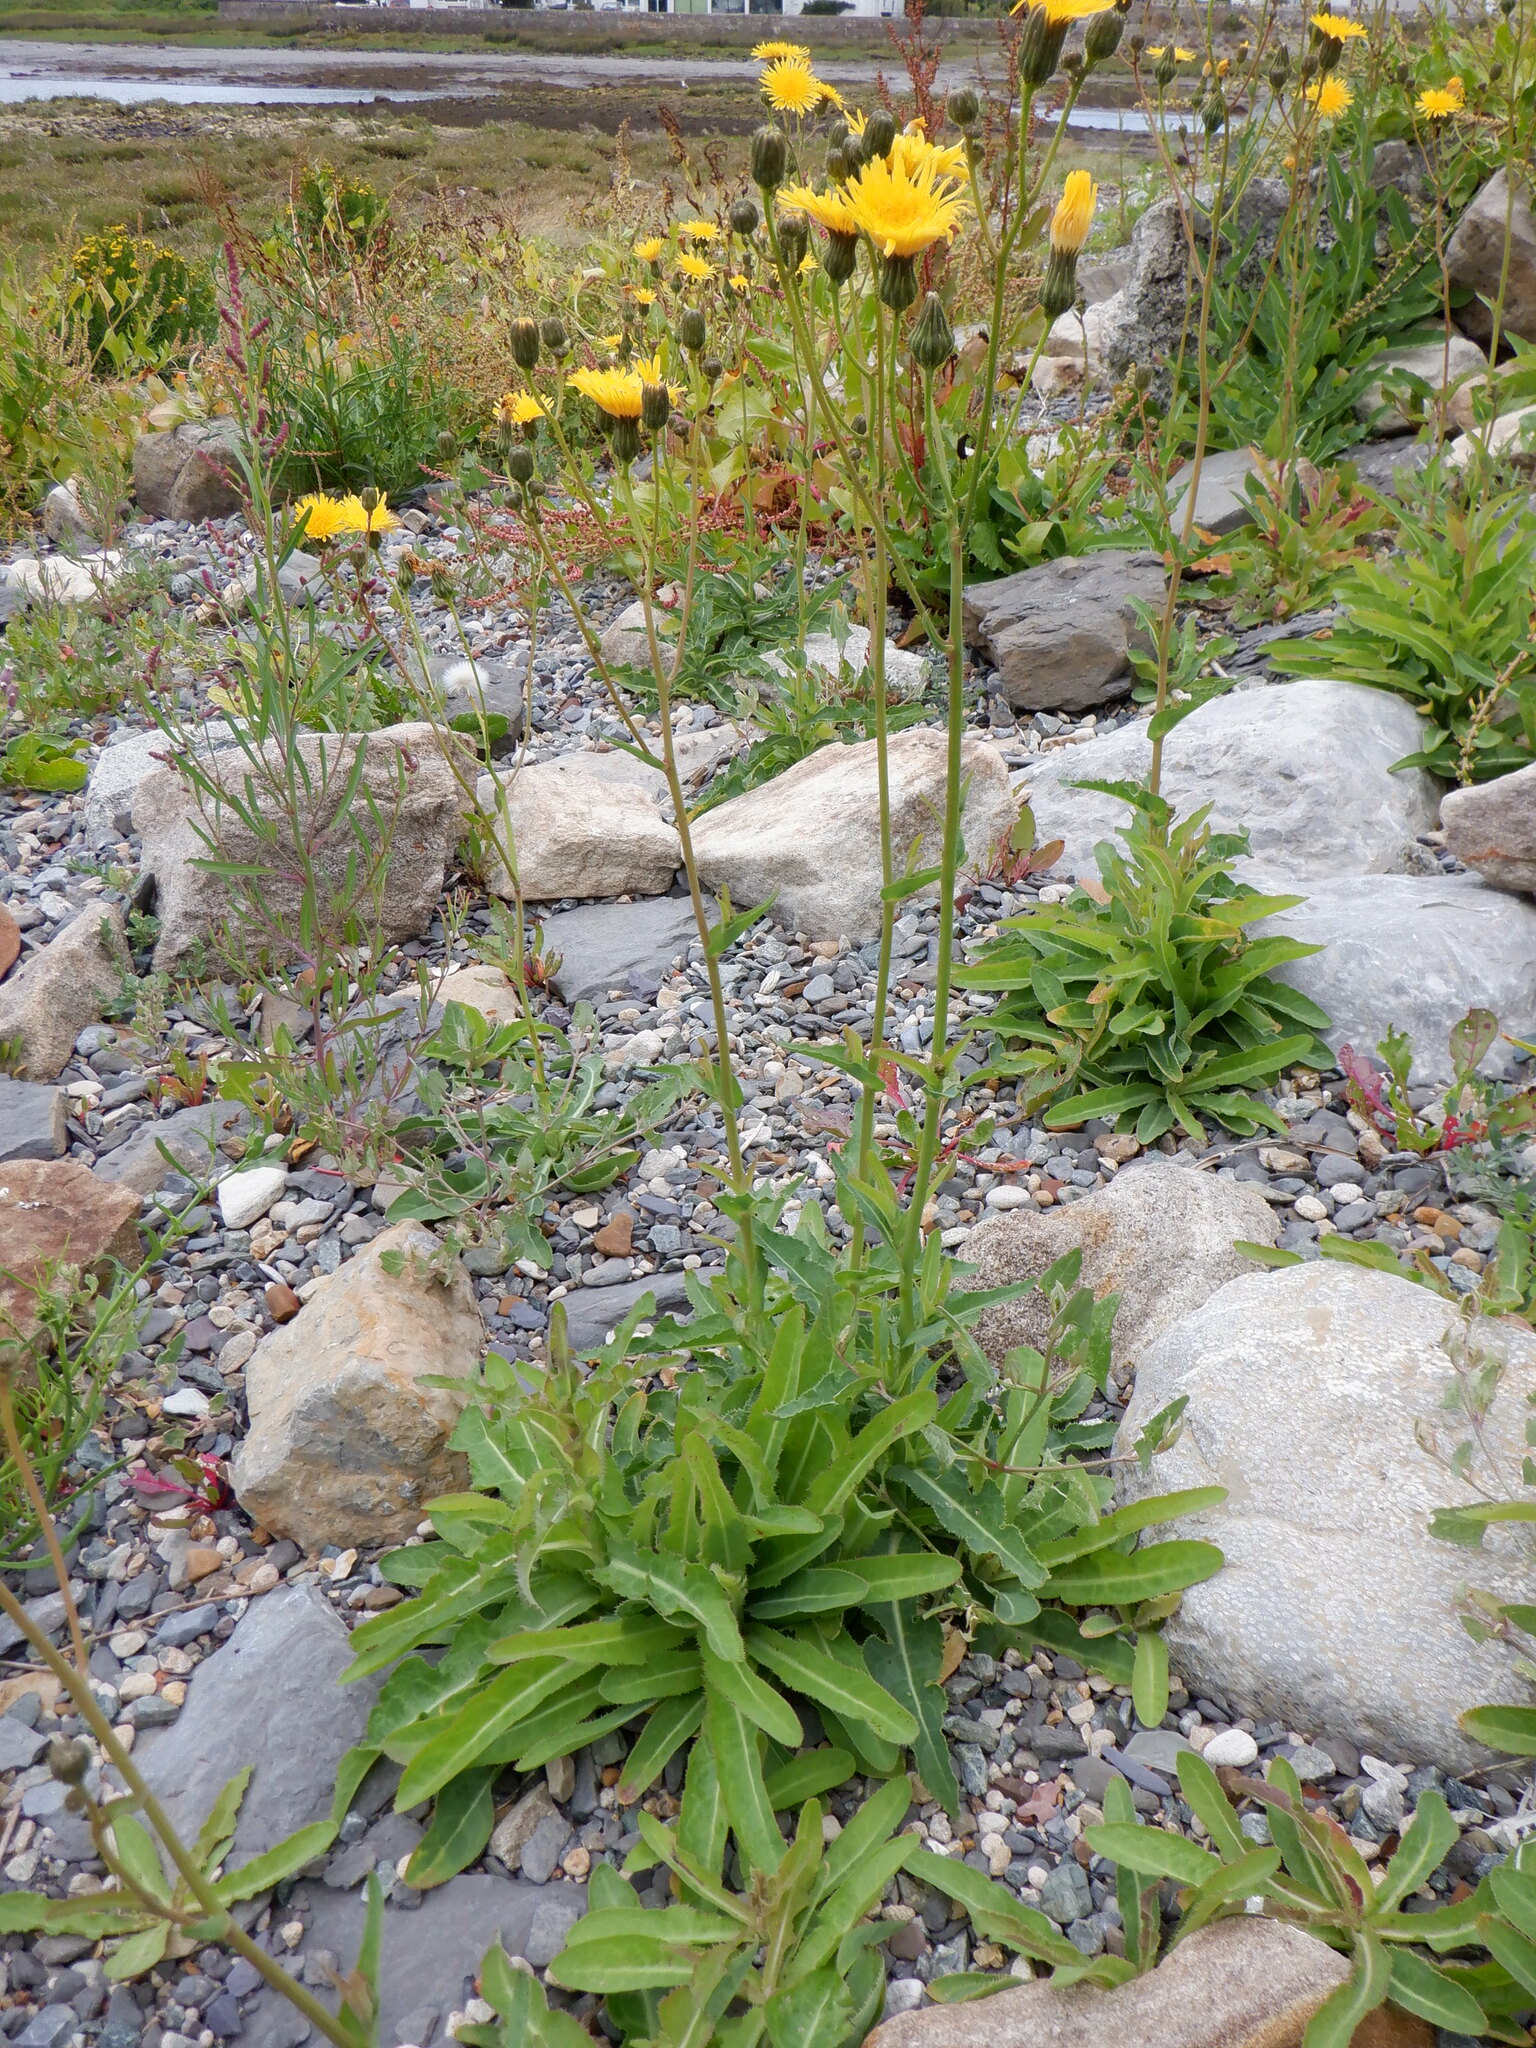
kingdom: Plantae
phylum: Tracheophyta
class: Magnoliopsida
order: Asterales
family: Asteraceae
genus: Sonchus
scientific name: Sonchus arvensis
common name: Perennial sow-thistle
